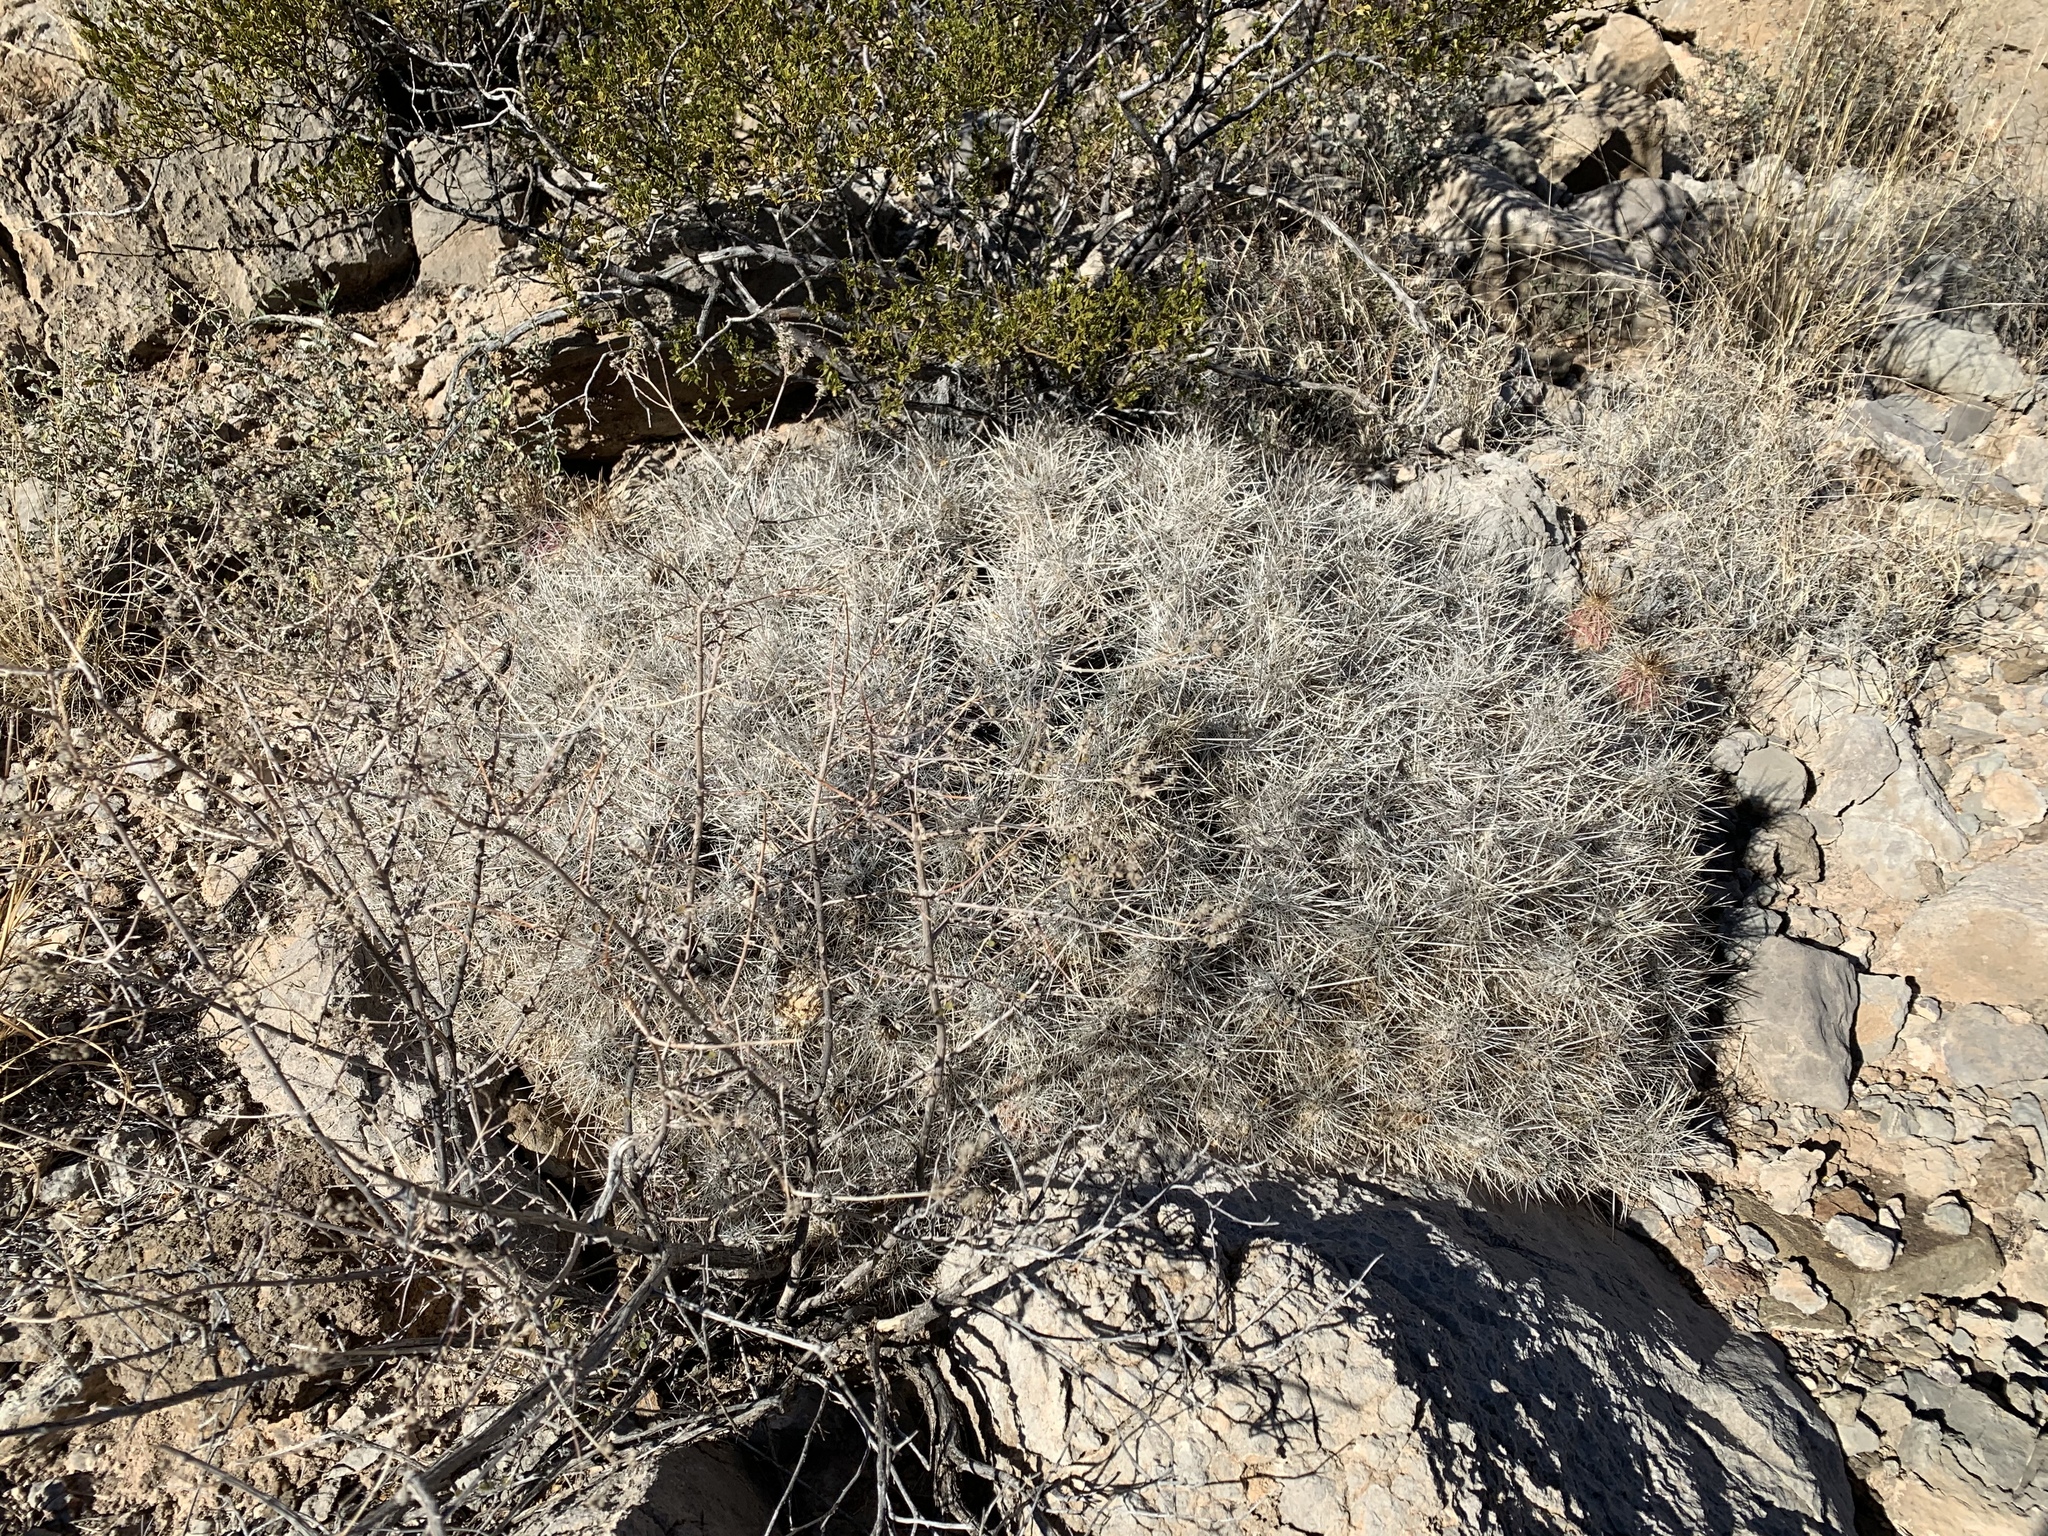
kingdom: Plantae
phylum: Tracheophyta
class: Magnoliopsida
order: Caryophyllales
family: Cactaceae
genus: Echinocereus
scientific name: Echinocereus stramineus
